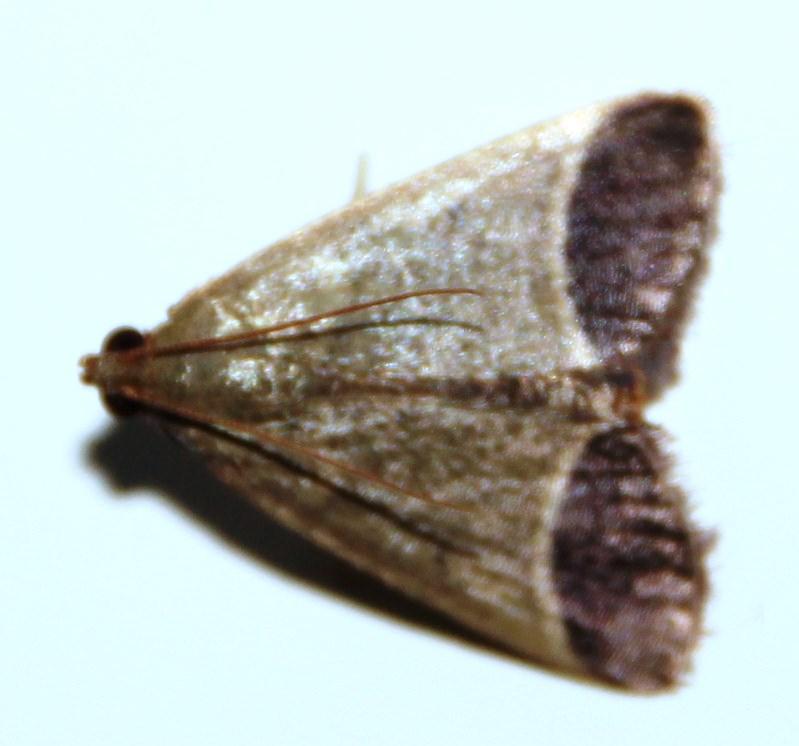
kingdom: Animalia
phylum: Arthropoda
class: Insecta
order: Lepidoptera
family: Pyralidae
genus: Tegulifera
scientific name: Tegulifera Sphalerosticha oblunata
